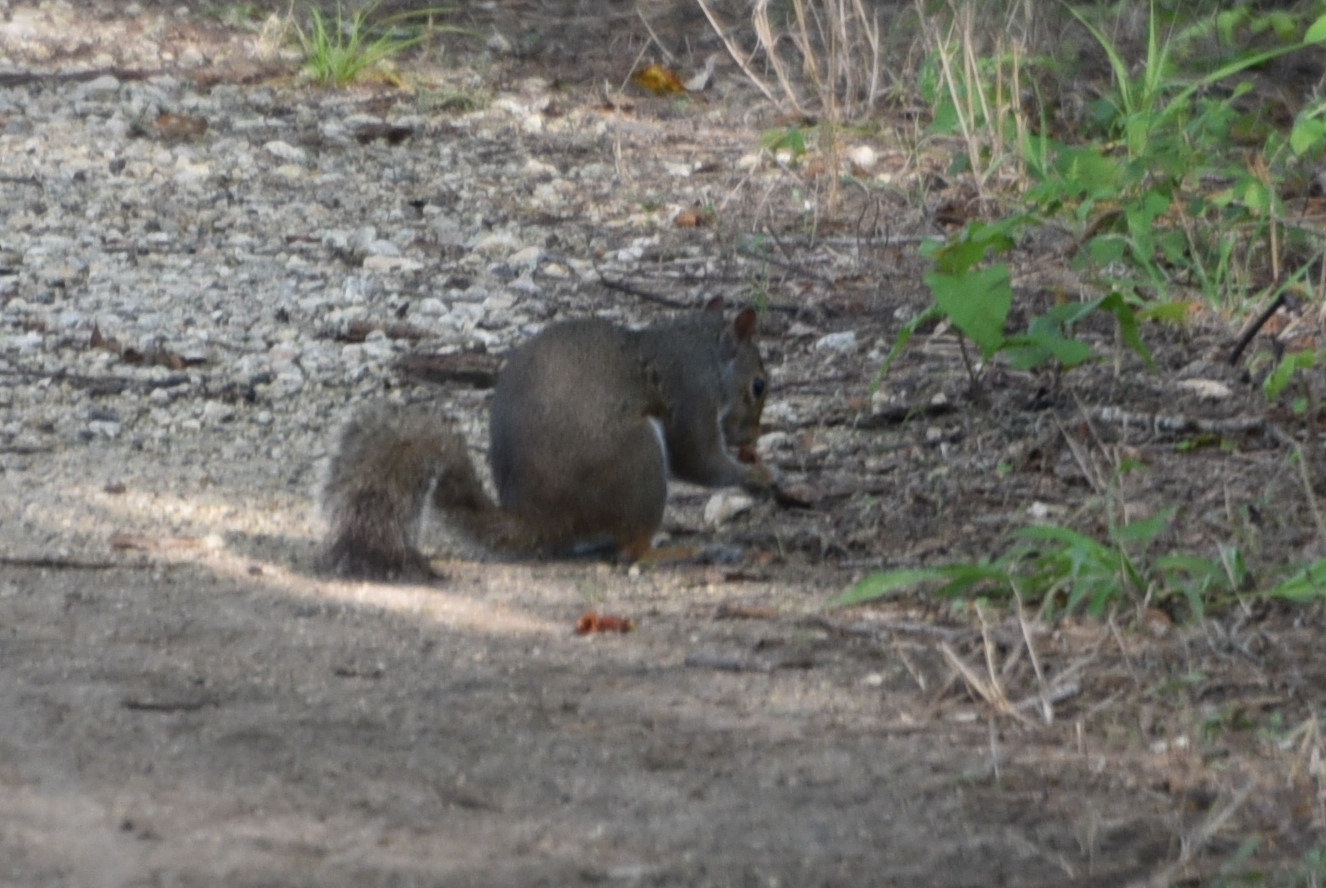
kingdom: Animalia
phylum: Chordata
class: Mammalia
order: Rodentia
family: Sciuridae
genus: Sciurus
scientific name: Sciurus carolinensis
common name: Eastern gray squirrel
